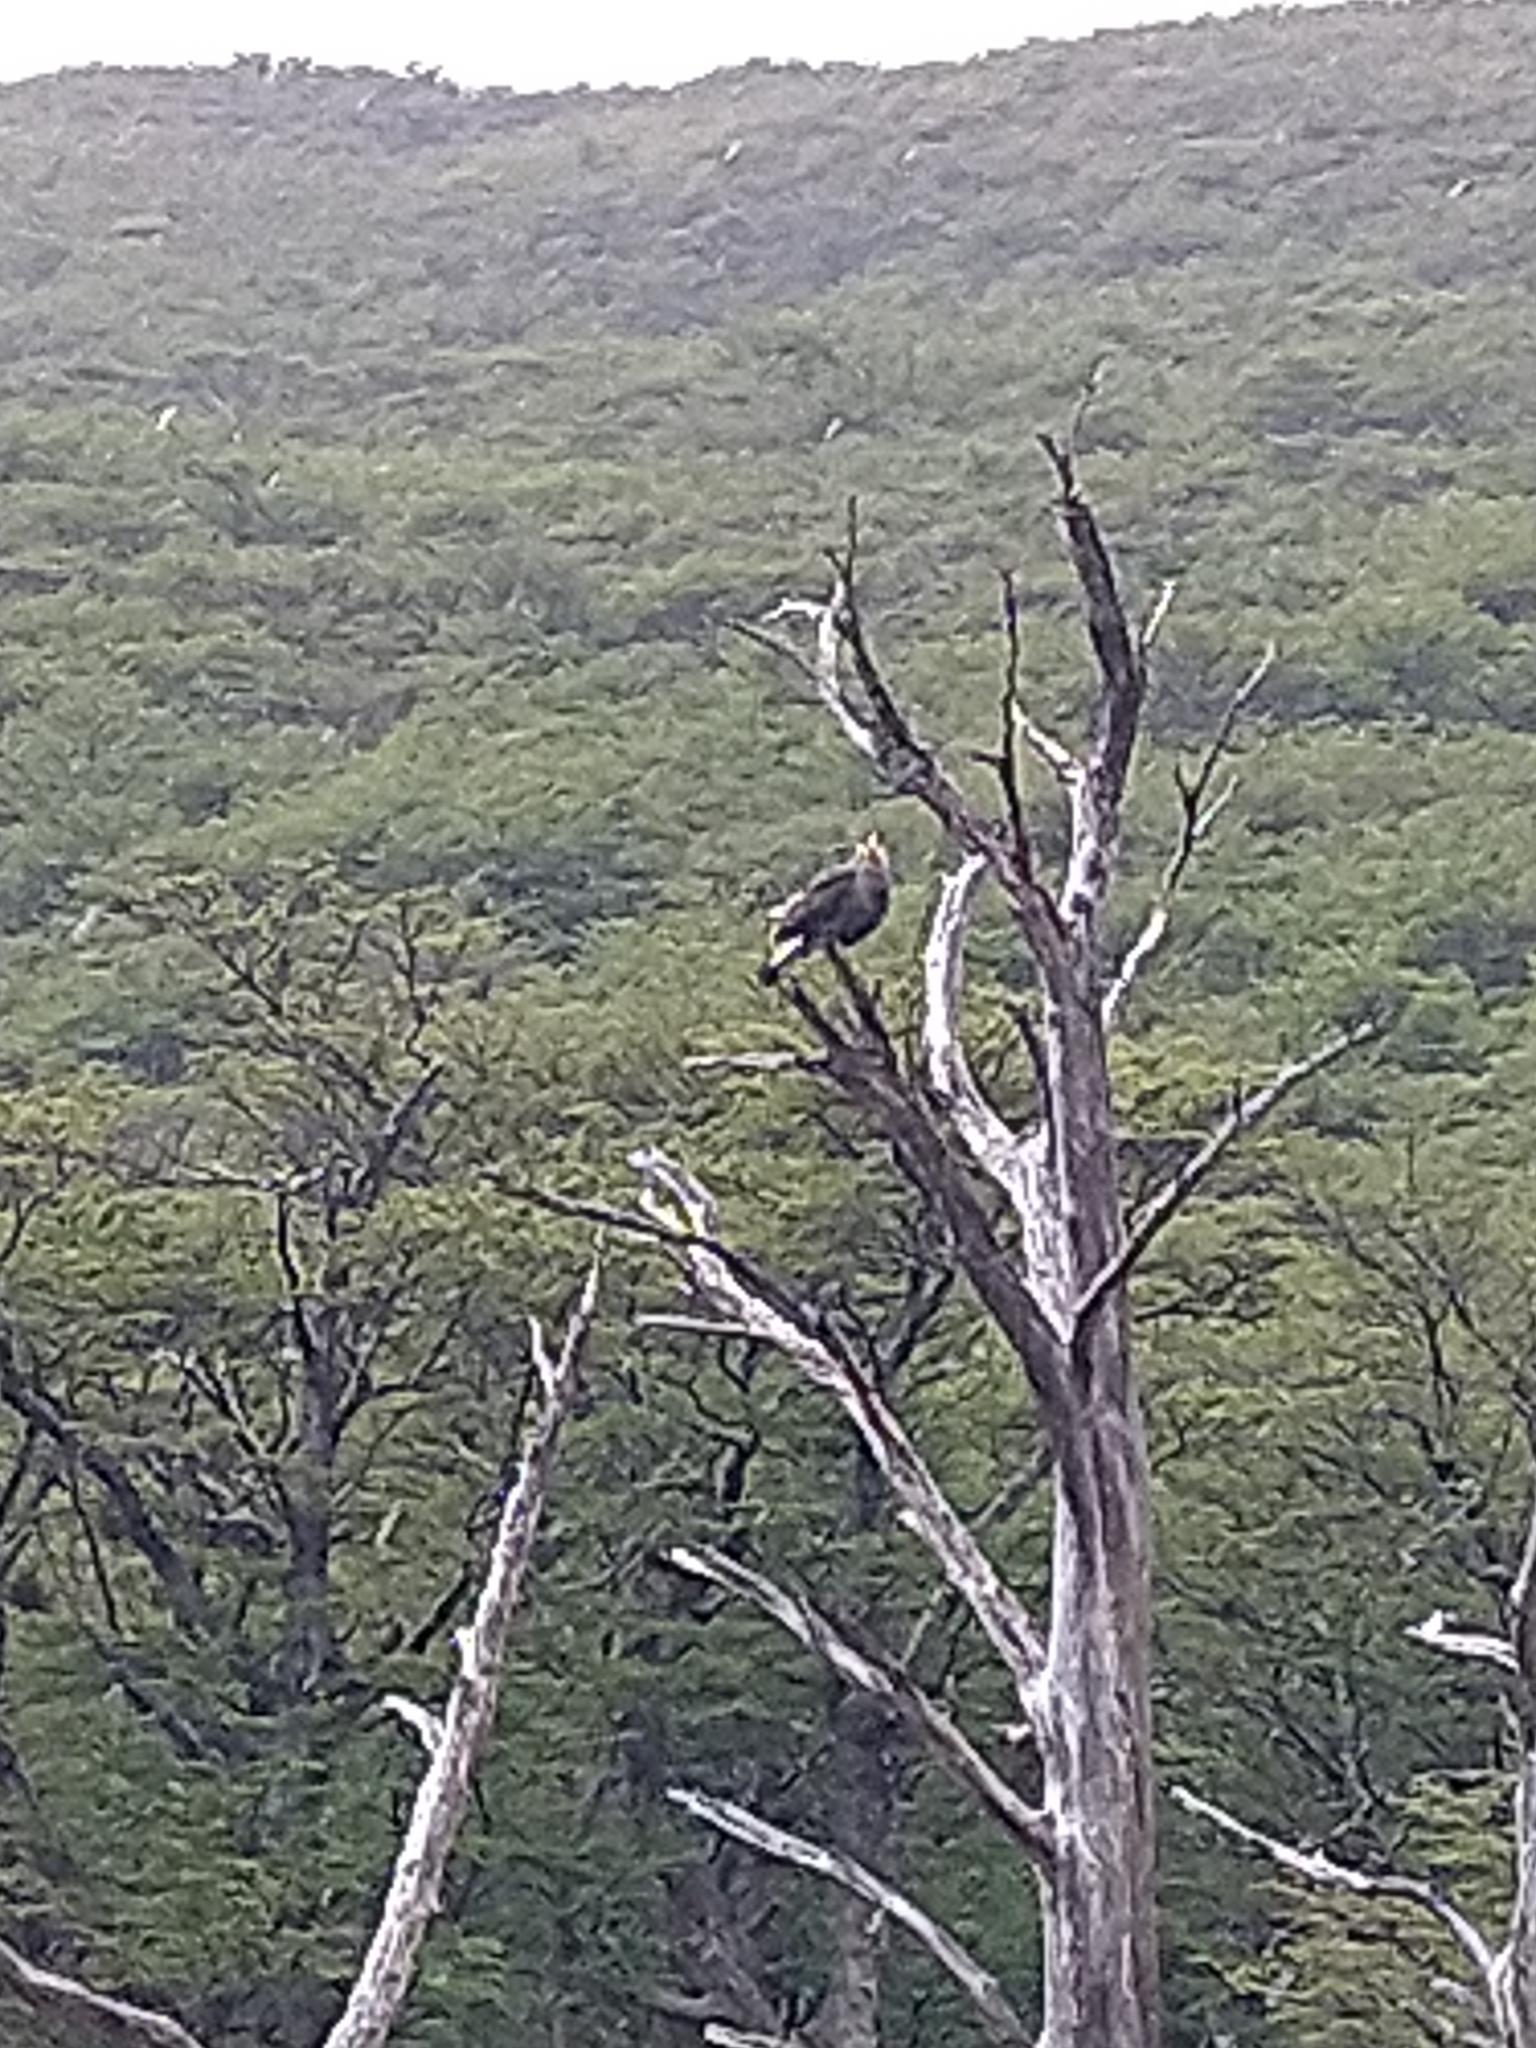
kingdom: Animalia
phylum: Chordata
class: Aves
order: Falconiformes
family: Falconidae
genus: Caracara
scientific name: Caracara plancus
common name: Southern caracara
